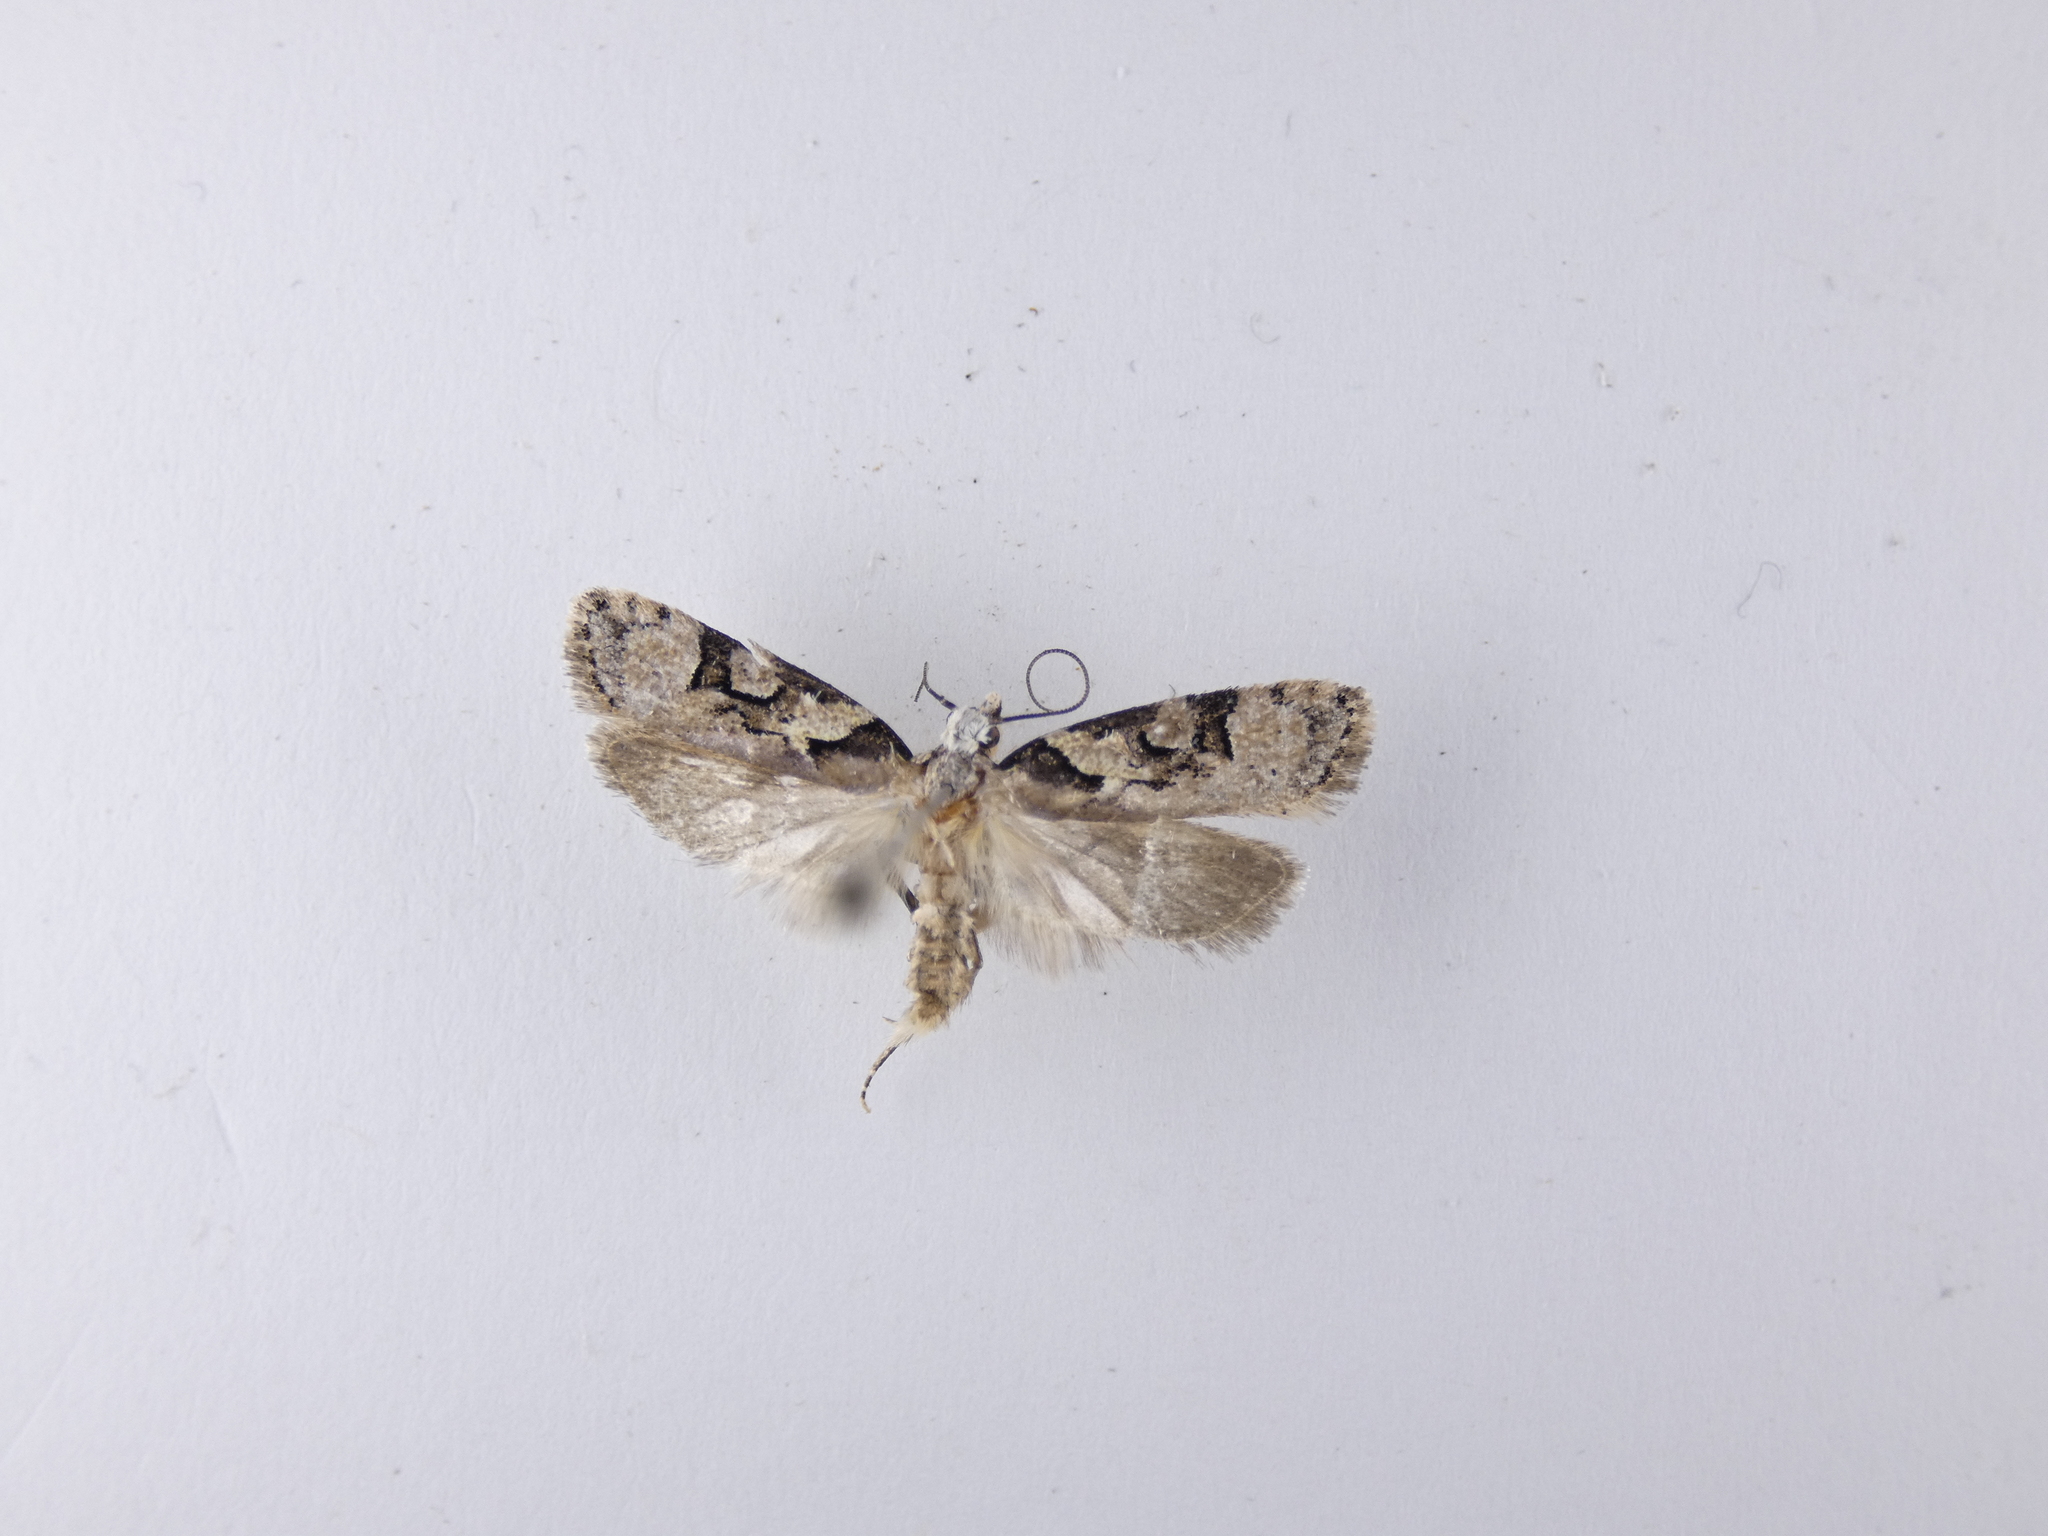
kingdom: Animalia
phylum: Arthropoda
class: Insecta
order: Lepidoptera
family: Oecophoridae
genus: Izatha
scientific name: Izatha epiphanes
